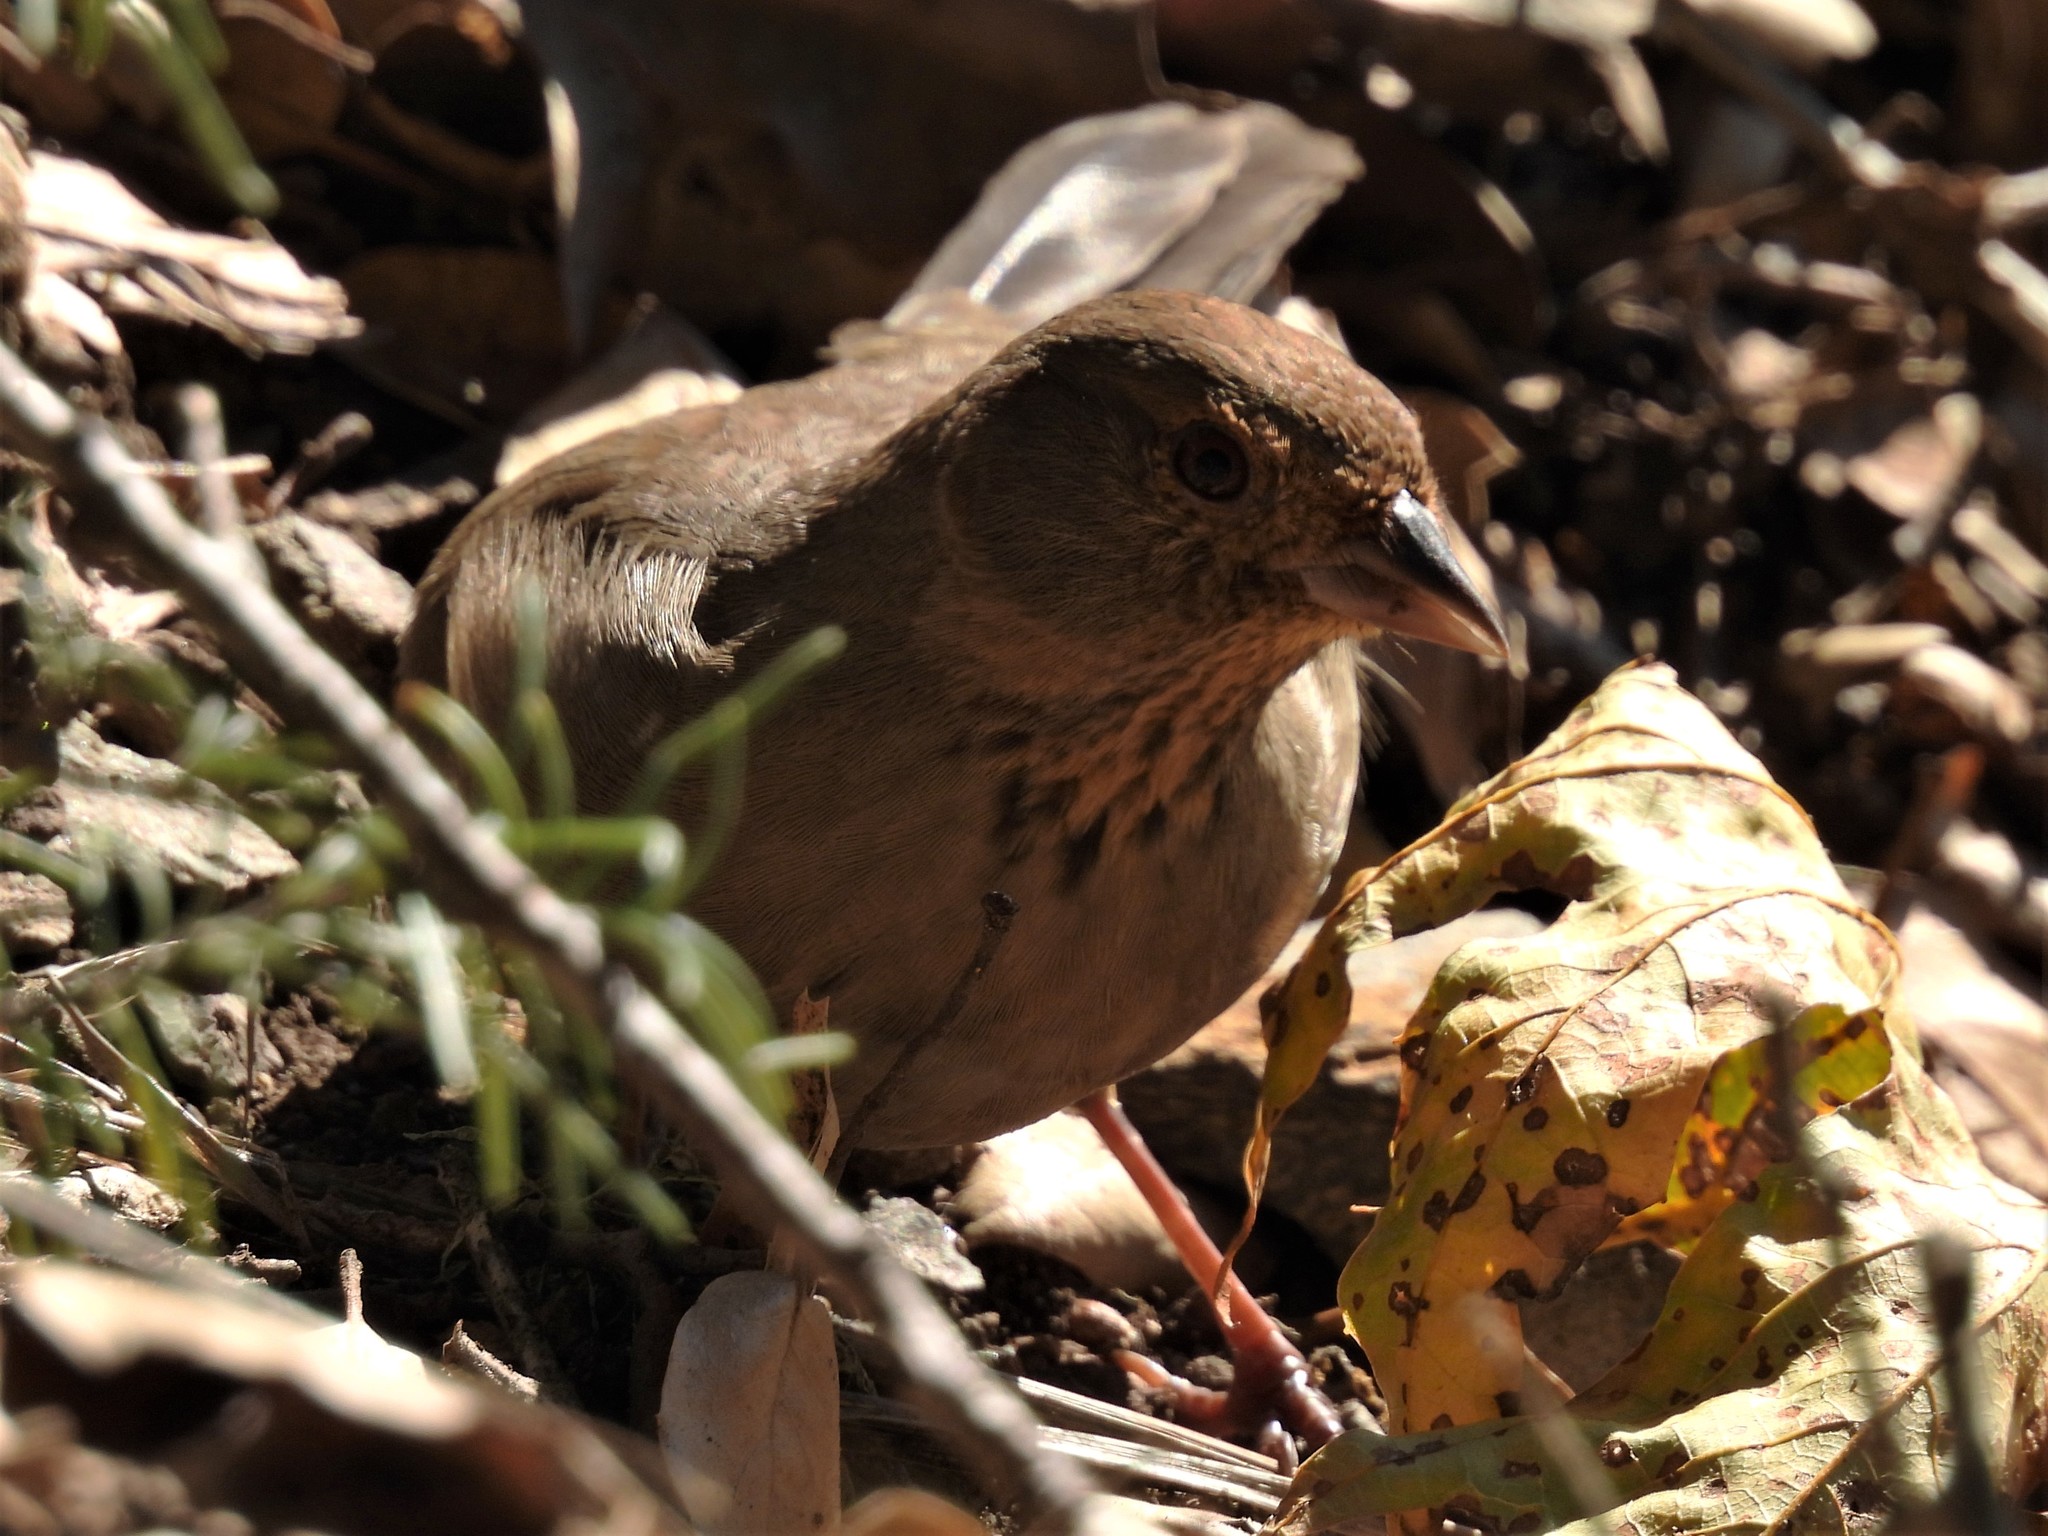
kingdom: Animalia
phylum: Chordata
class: Aves
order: Passeriformes
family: Passerellidae
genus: Melozone
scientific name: Melozone crissalis
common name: California towhee
